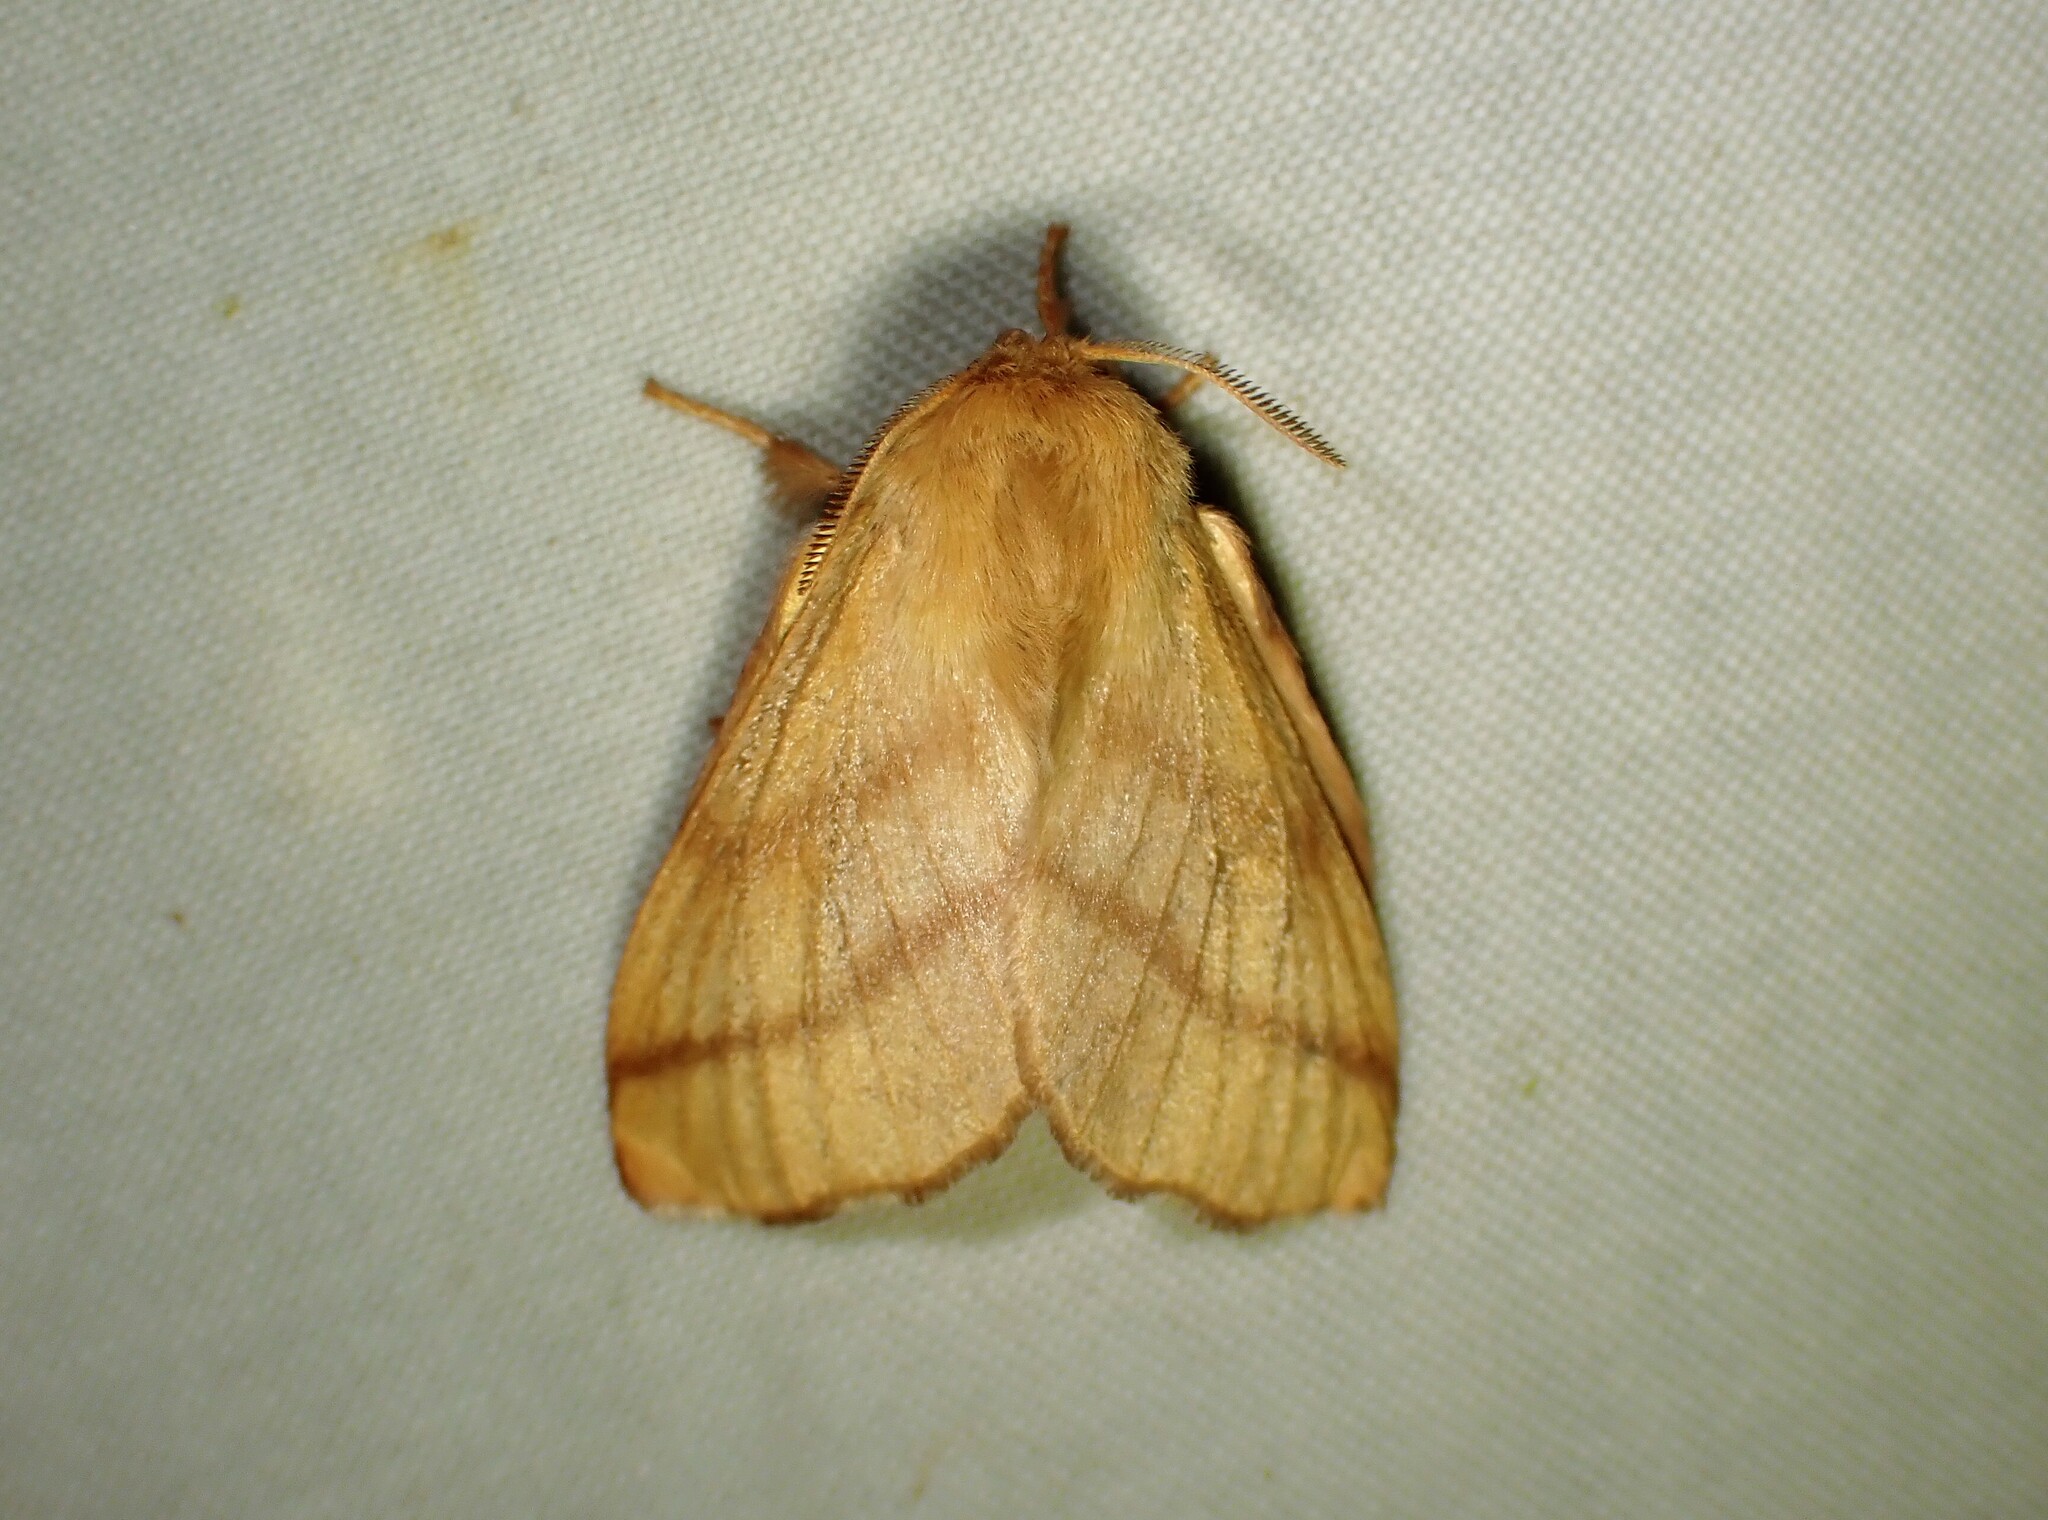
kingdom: Animalia
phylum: Arthropoda
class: Insecta
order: Lepidoptera
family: Lasiocampidae
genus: Malacosoma
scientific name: Malacosoma disstria
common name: Forest tent caterpillar
